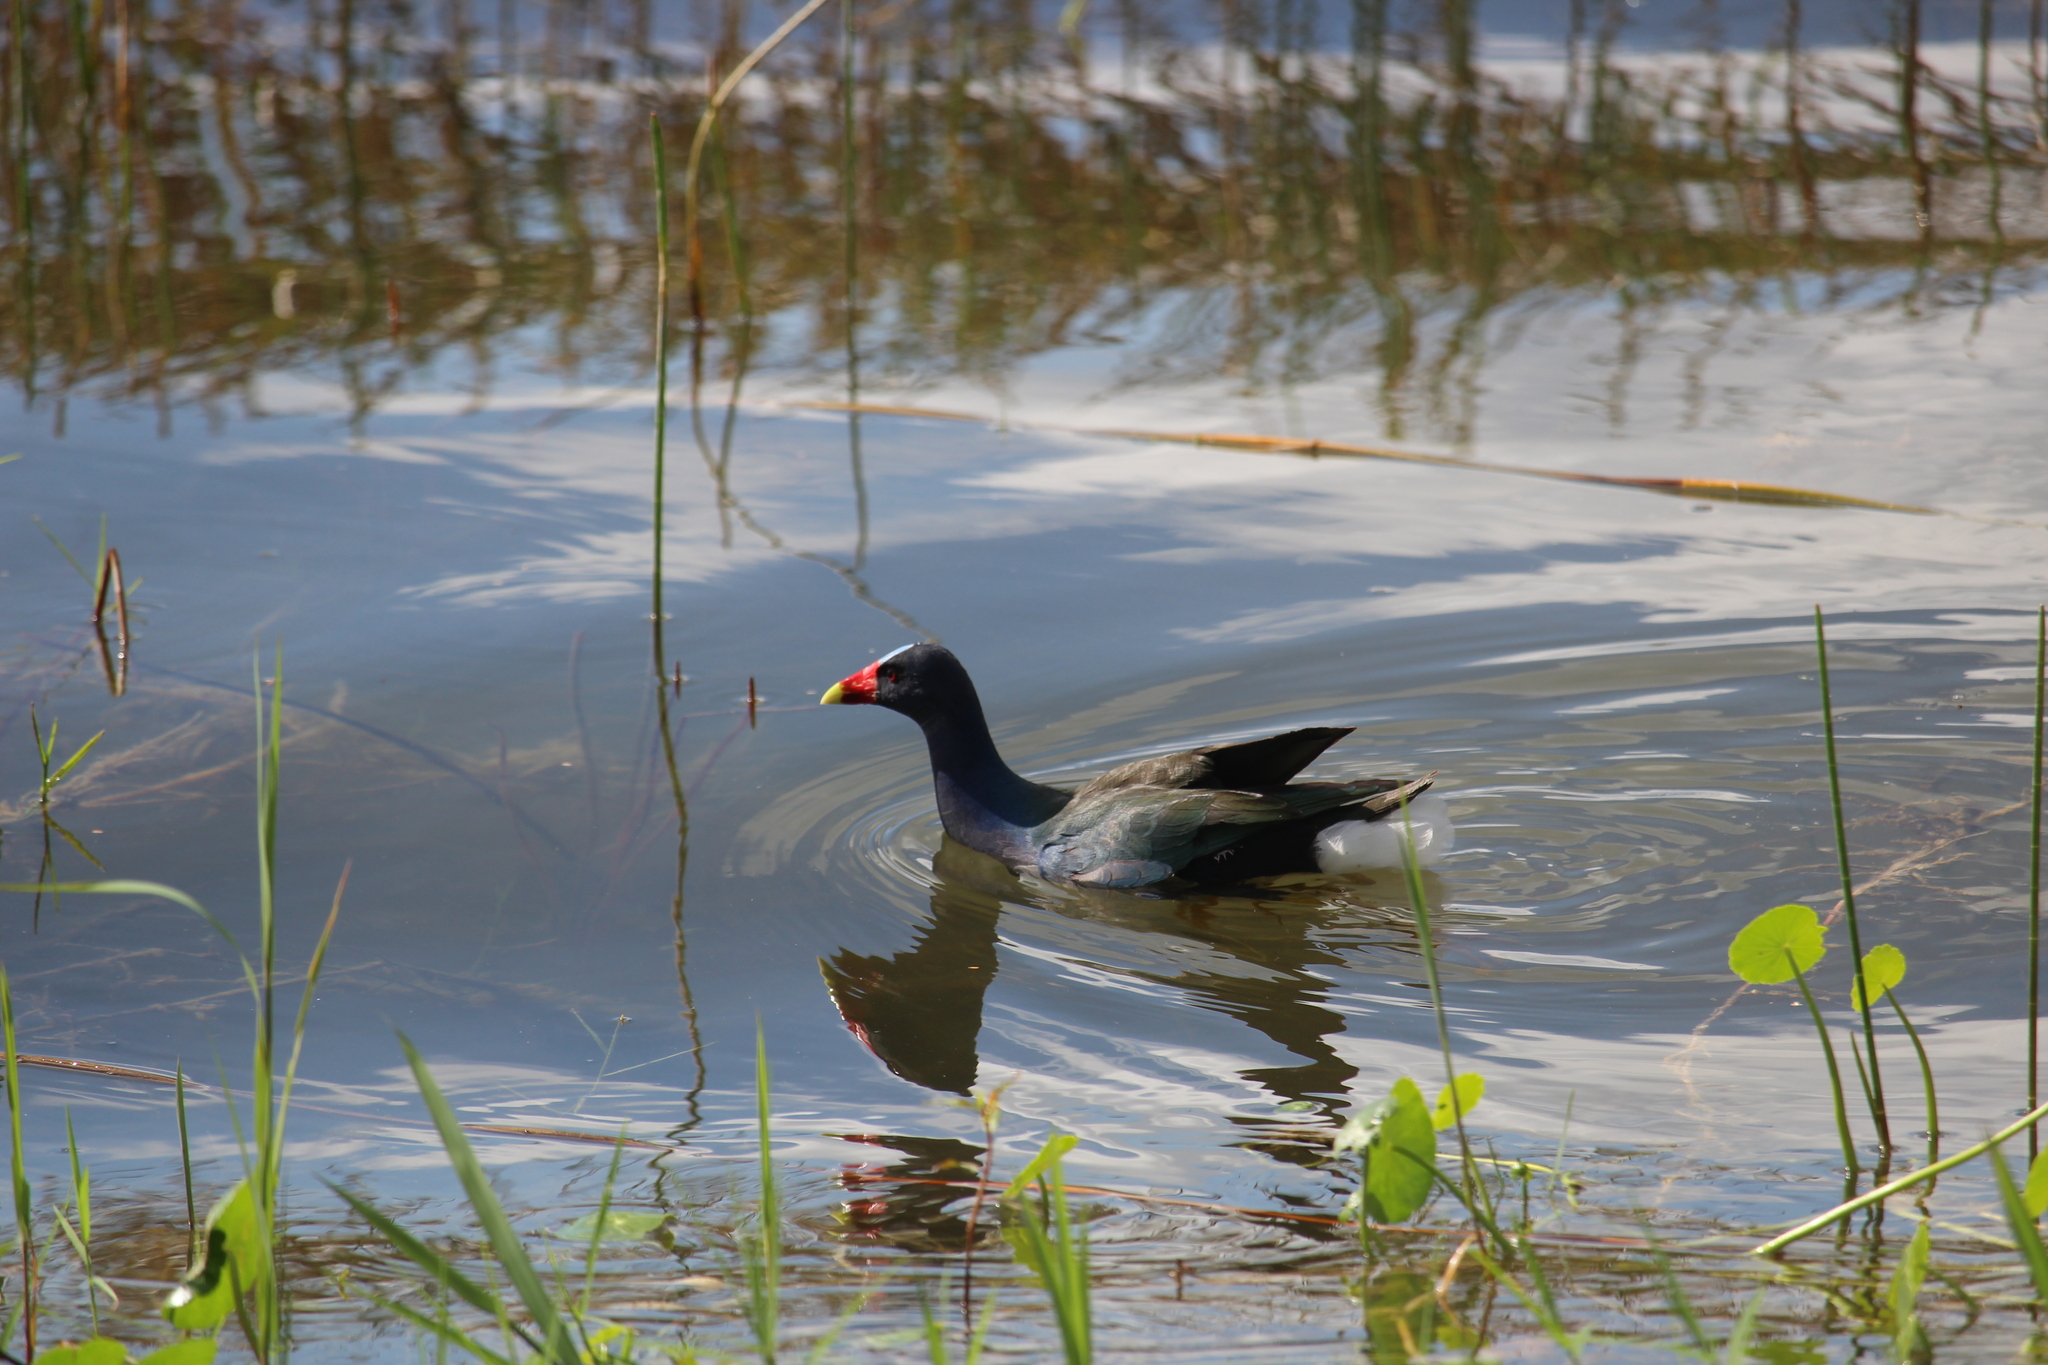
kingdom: Animalia
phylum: Chordata
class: Aves
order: Gruiformes
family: Rallidae
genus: Porphyrio
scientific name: Porphyrio martinica
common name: Purple gallinule
